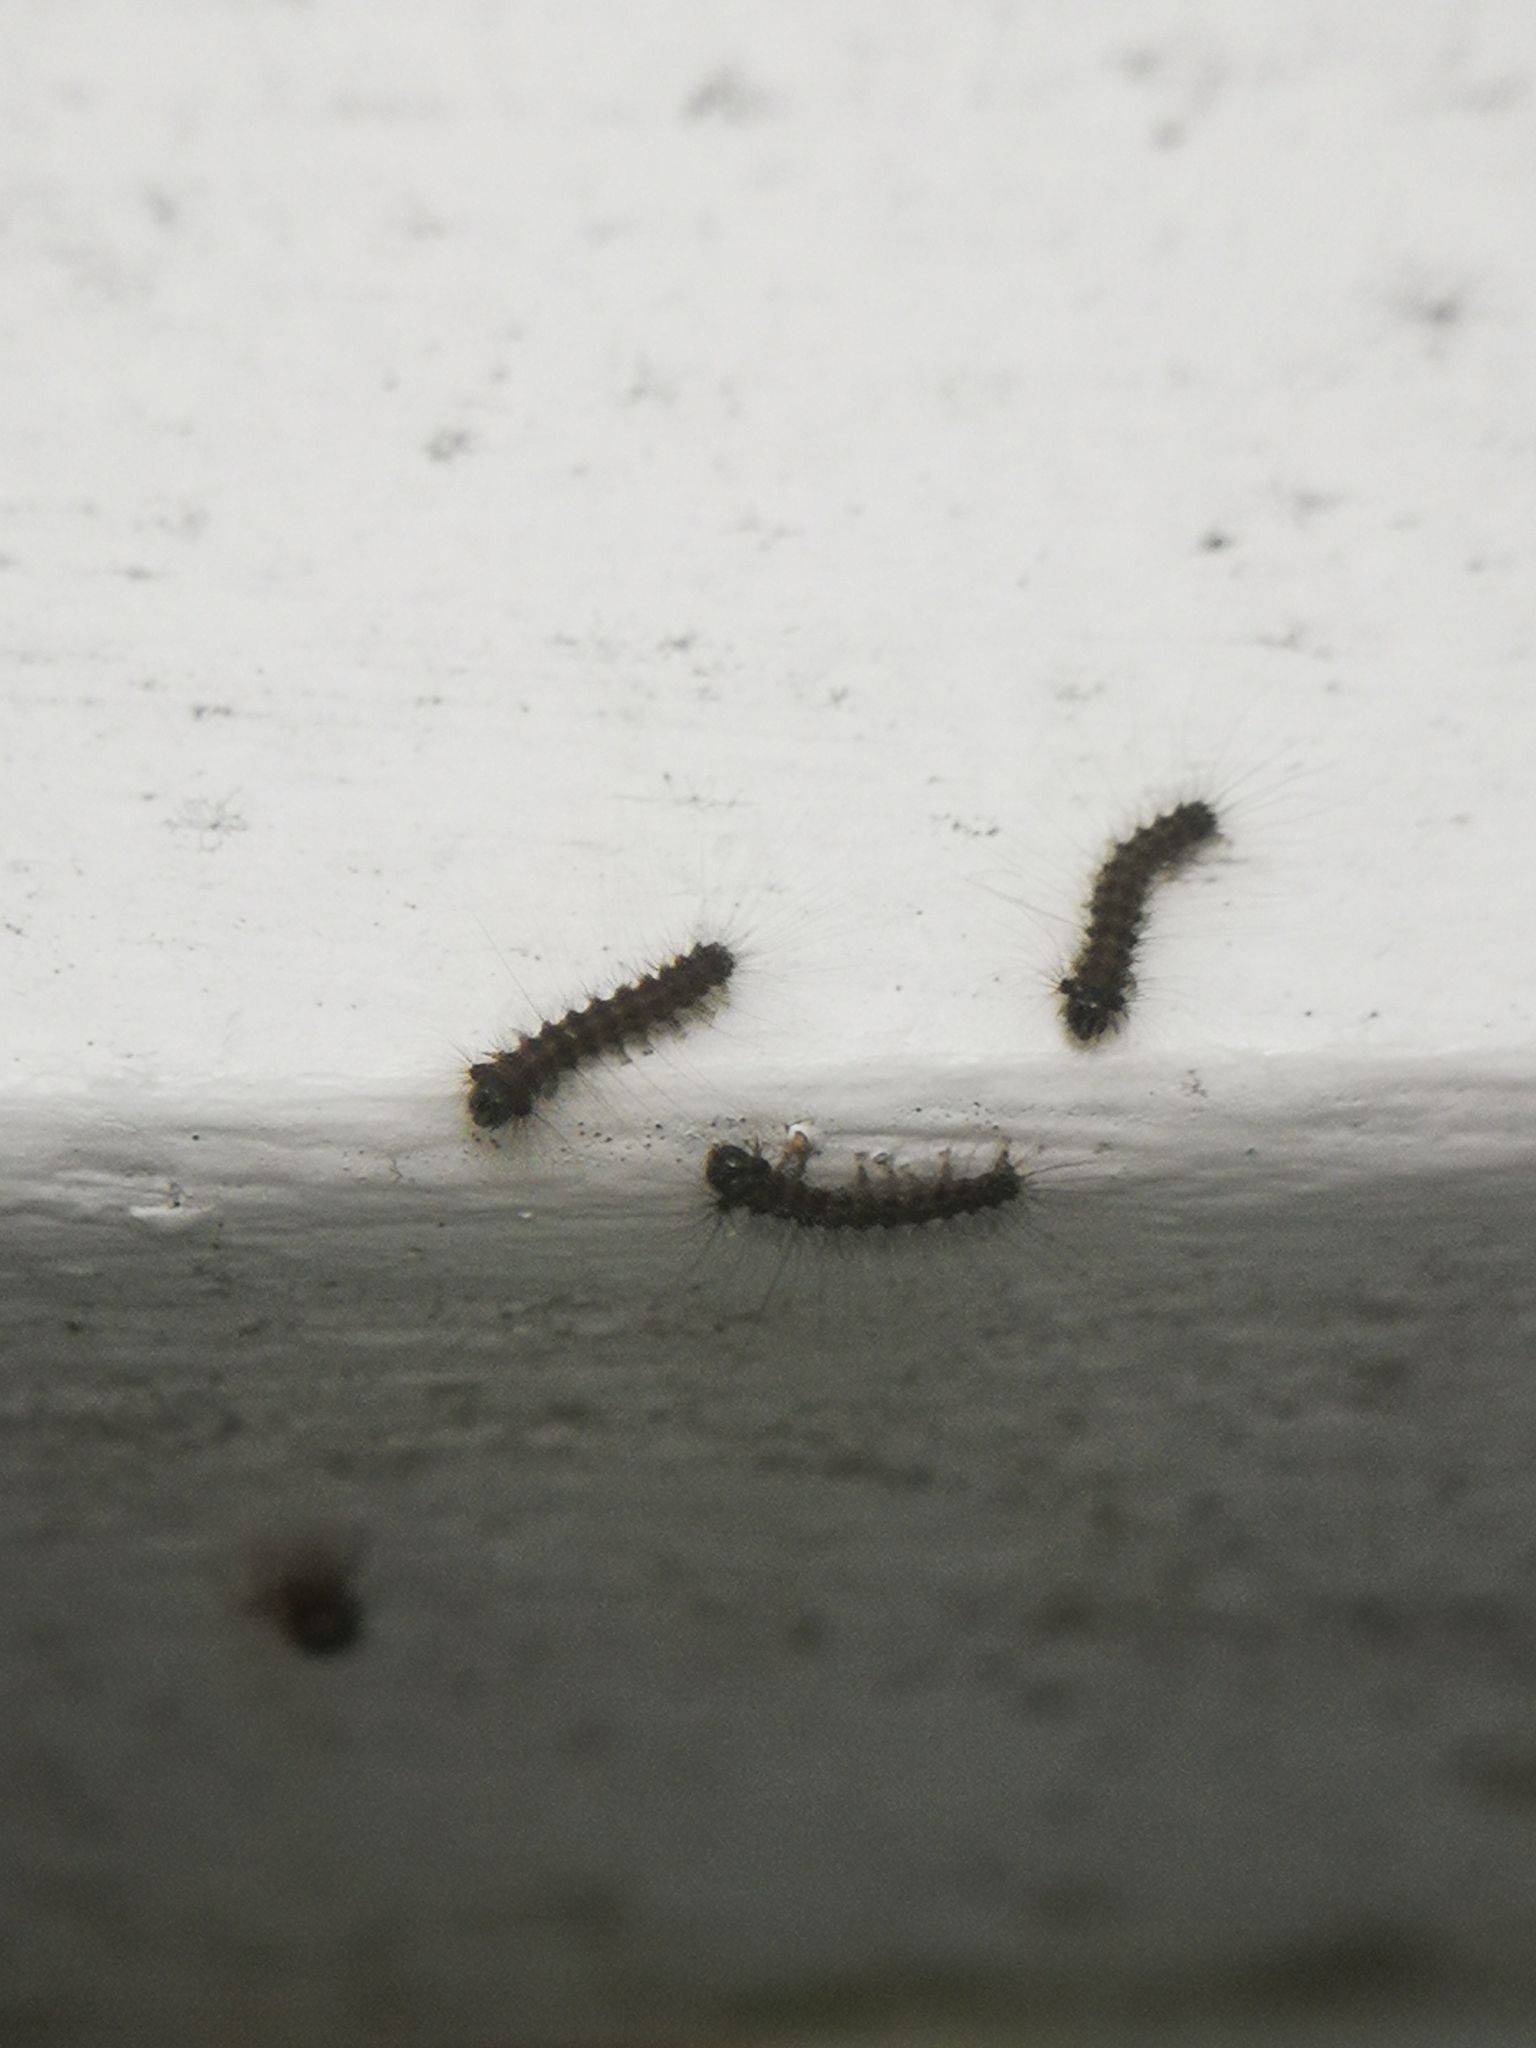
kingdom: Animalia
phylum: Arthropoda
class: Insecta
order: Lepidoptera
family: Erebidae
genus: Lymantria
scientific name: Lymantria dispar
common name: Gypsy moth
